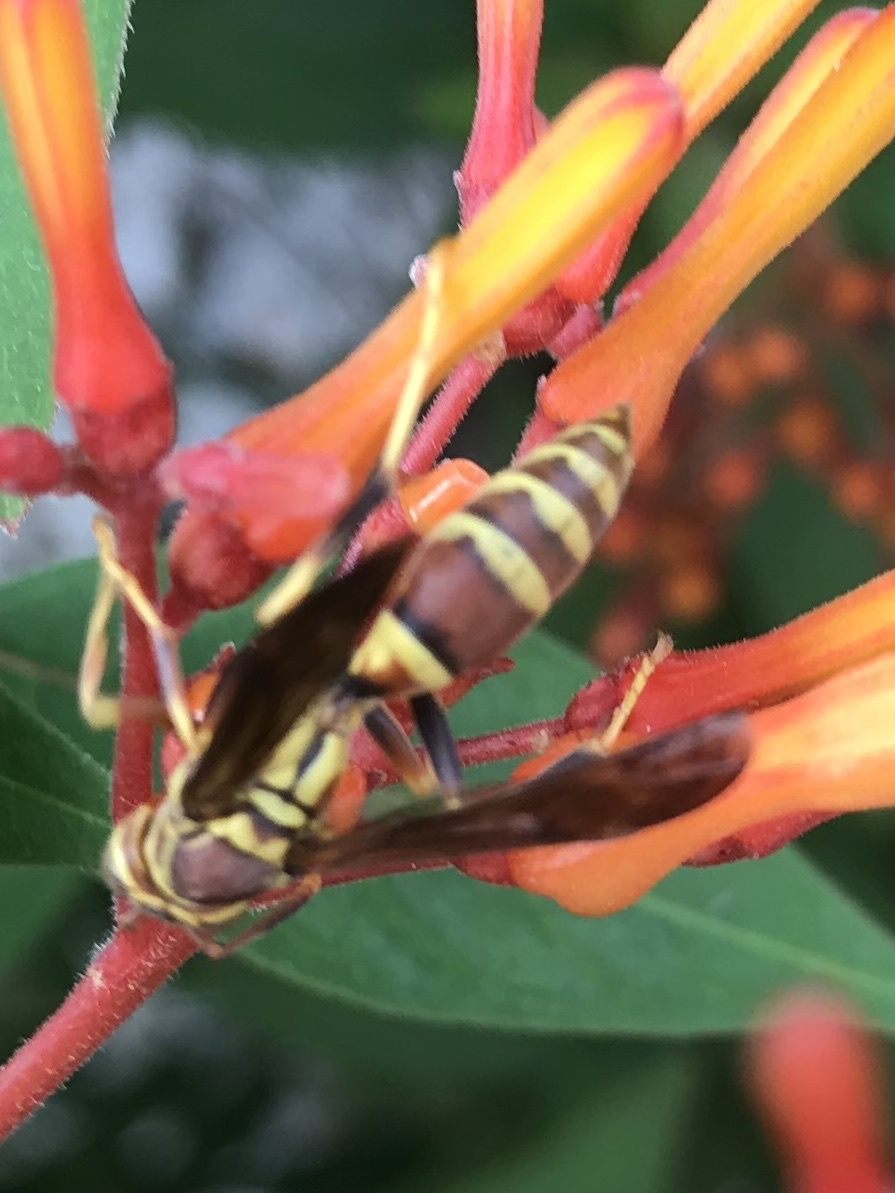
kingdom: Animalia
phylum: Arthropoda
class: Insecta
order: Hymenoptera
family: Eumenidae
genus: Polistes
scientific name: Polistes exclamans
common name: Paper wasp
